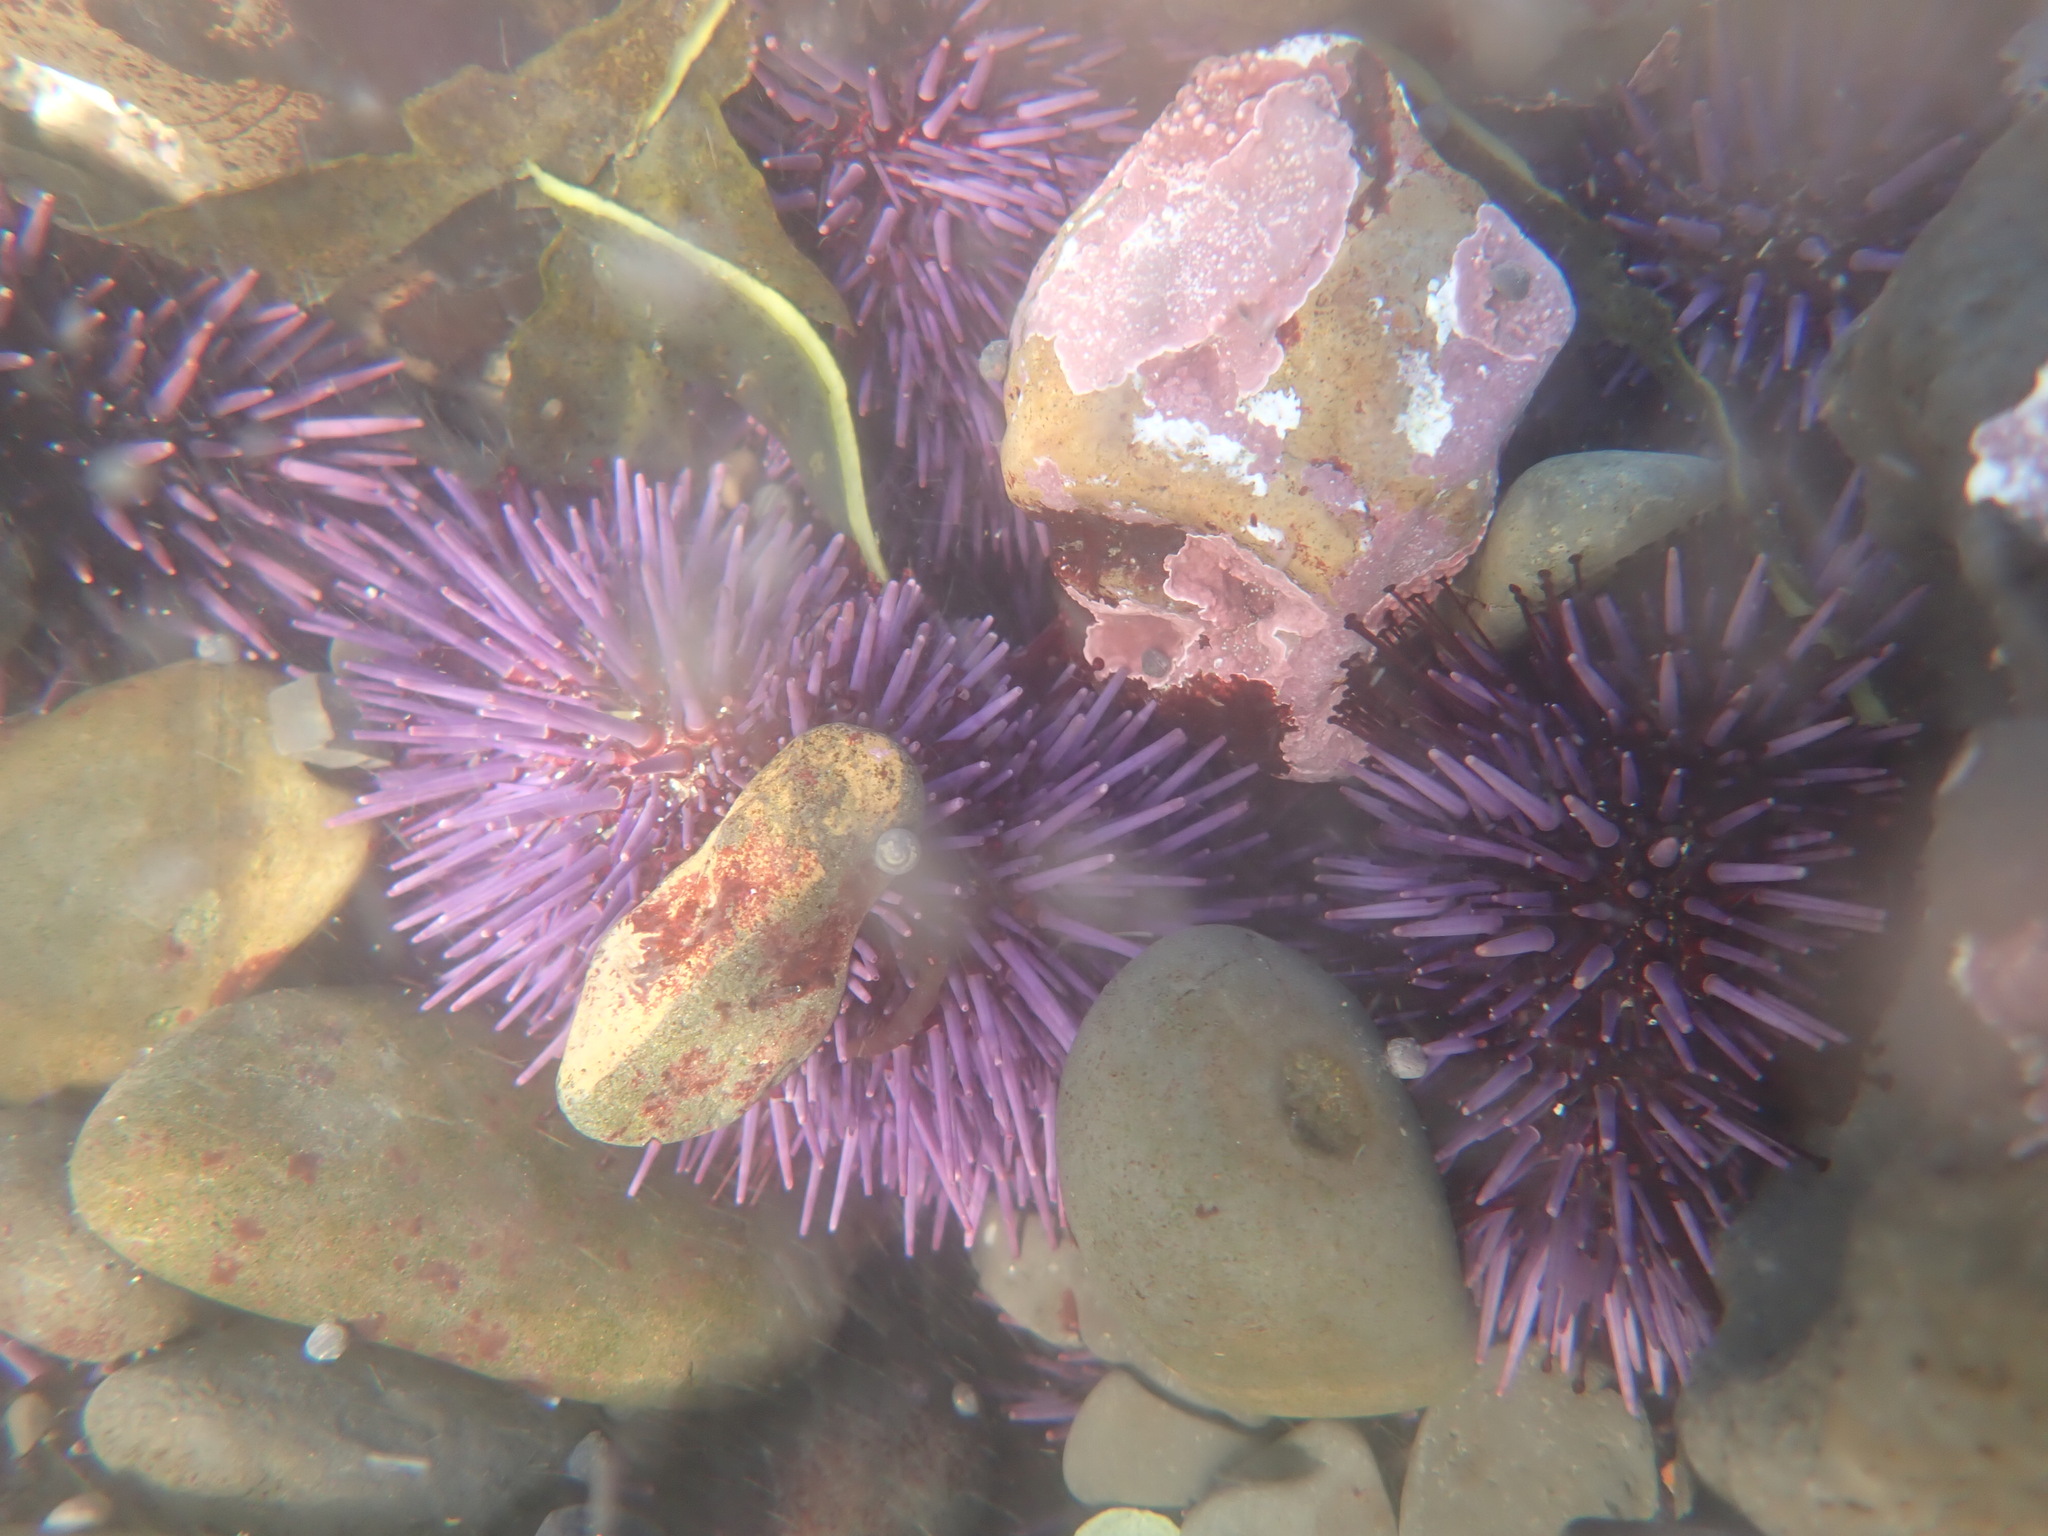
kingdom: Animalia
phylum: Echinodermata
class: Echinoidea
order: Camarodonta
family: Strongylocentrotidae
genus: Strongylocentrotus
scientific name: Strongylocentrotus purpuratus
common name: Purple sea urchin
